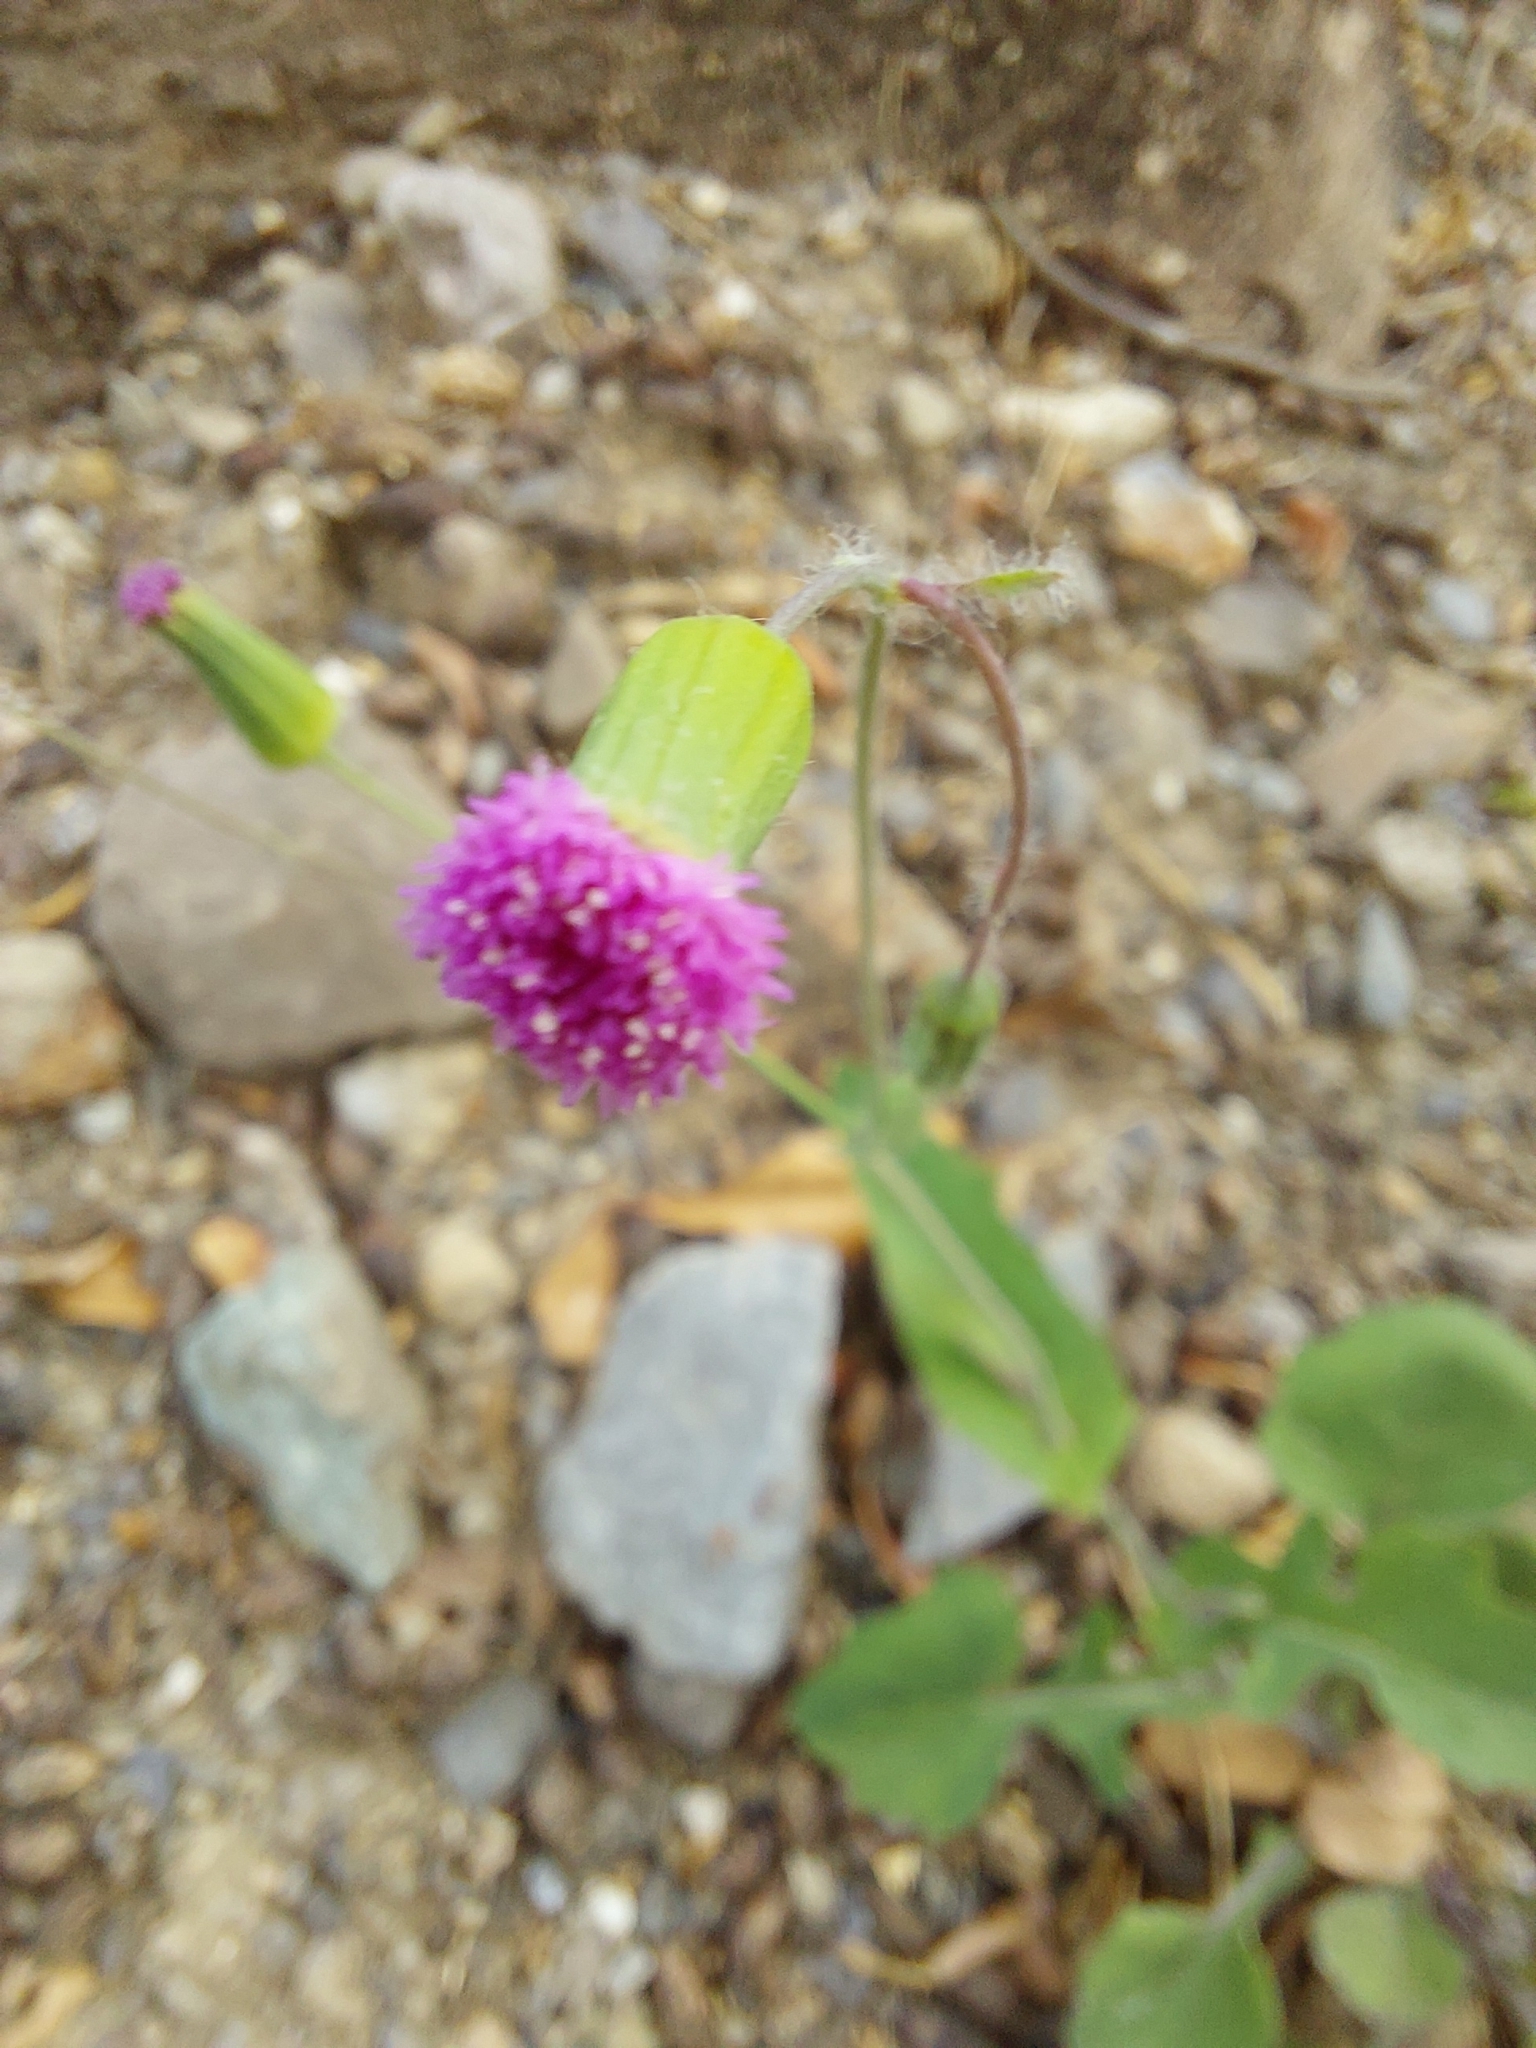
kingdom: Plantae
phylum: Tracheophyta
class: Magnoliopsida
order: Asterales
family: Asteraceae
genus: Emilia
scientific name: Emilia javanica
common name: Tassel-flower
